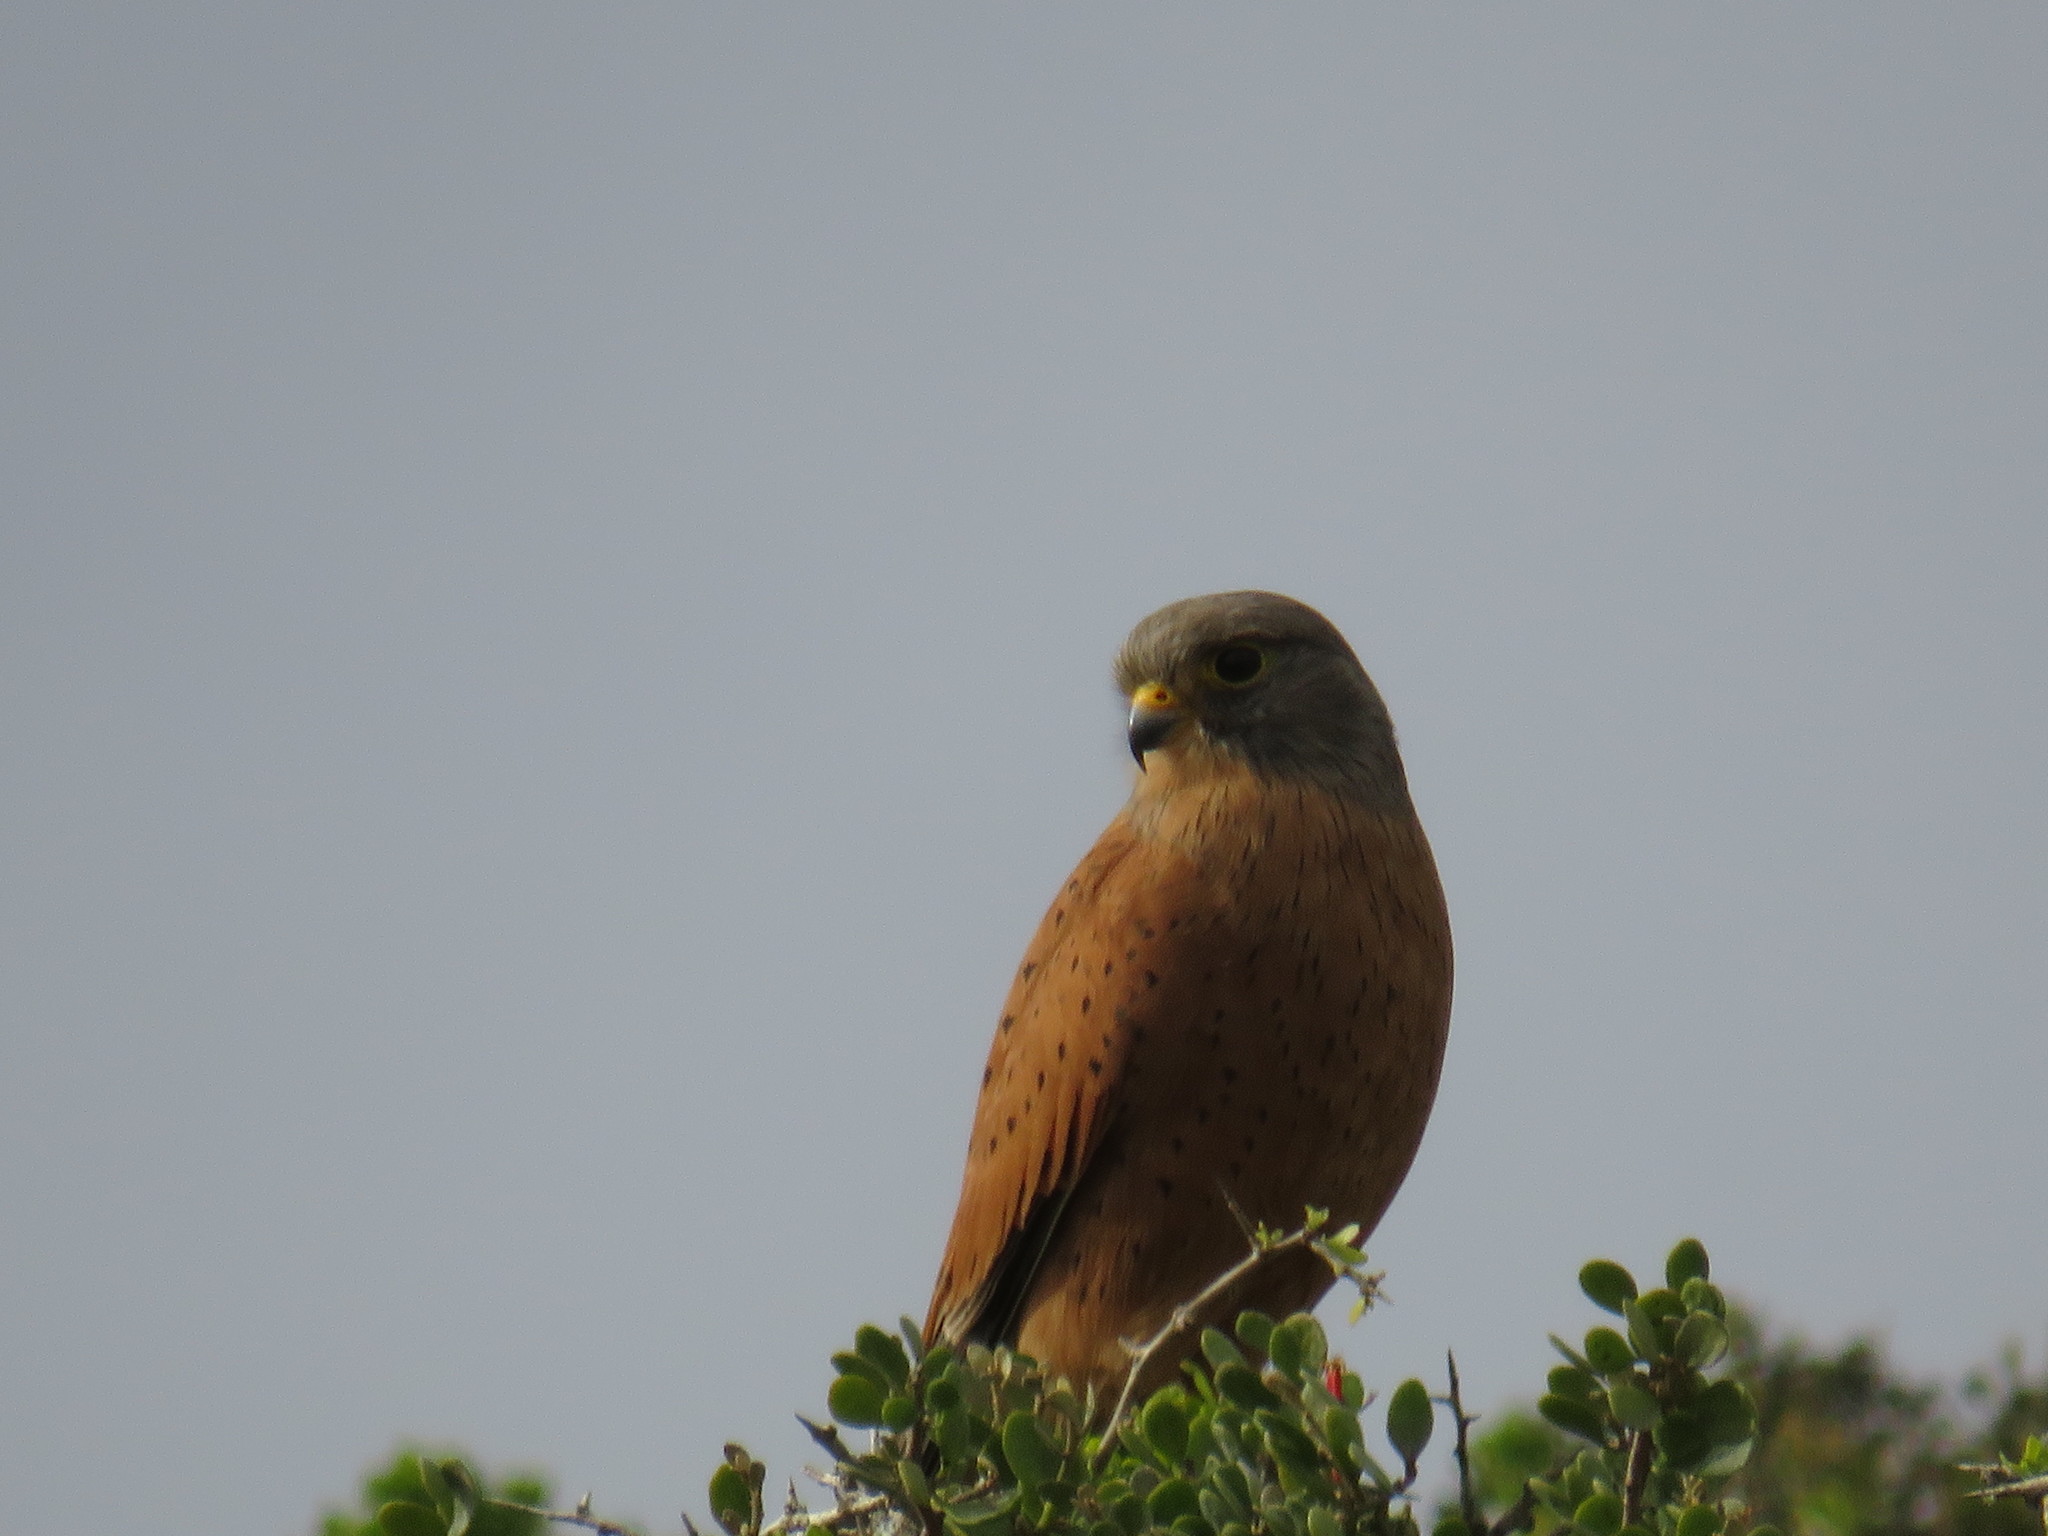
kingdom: Animalia
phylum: Chordata
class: Aves
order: Falconiformes
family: Falconidae
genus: Falco
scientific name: Falco rupicolus
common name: Rock kestrel
